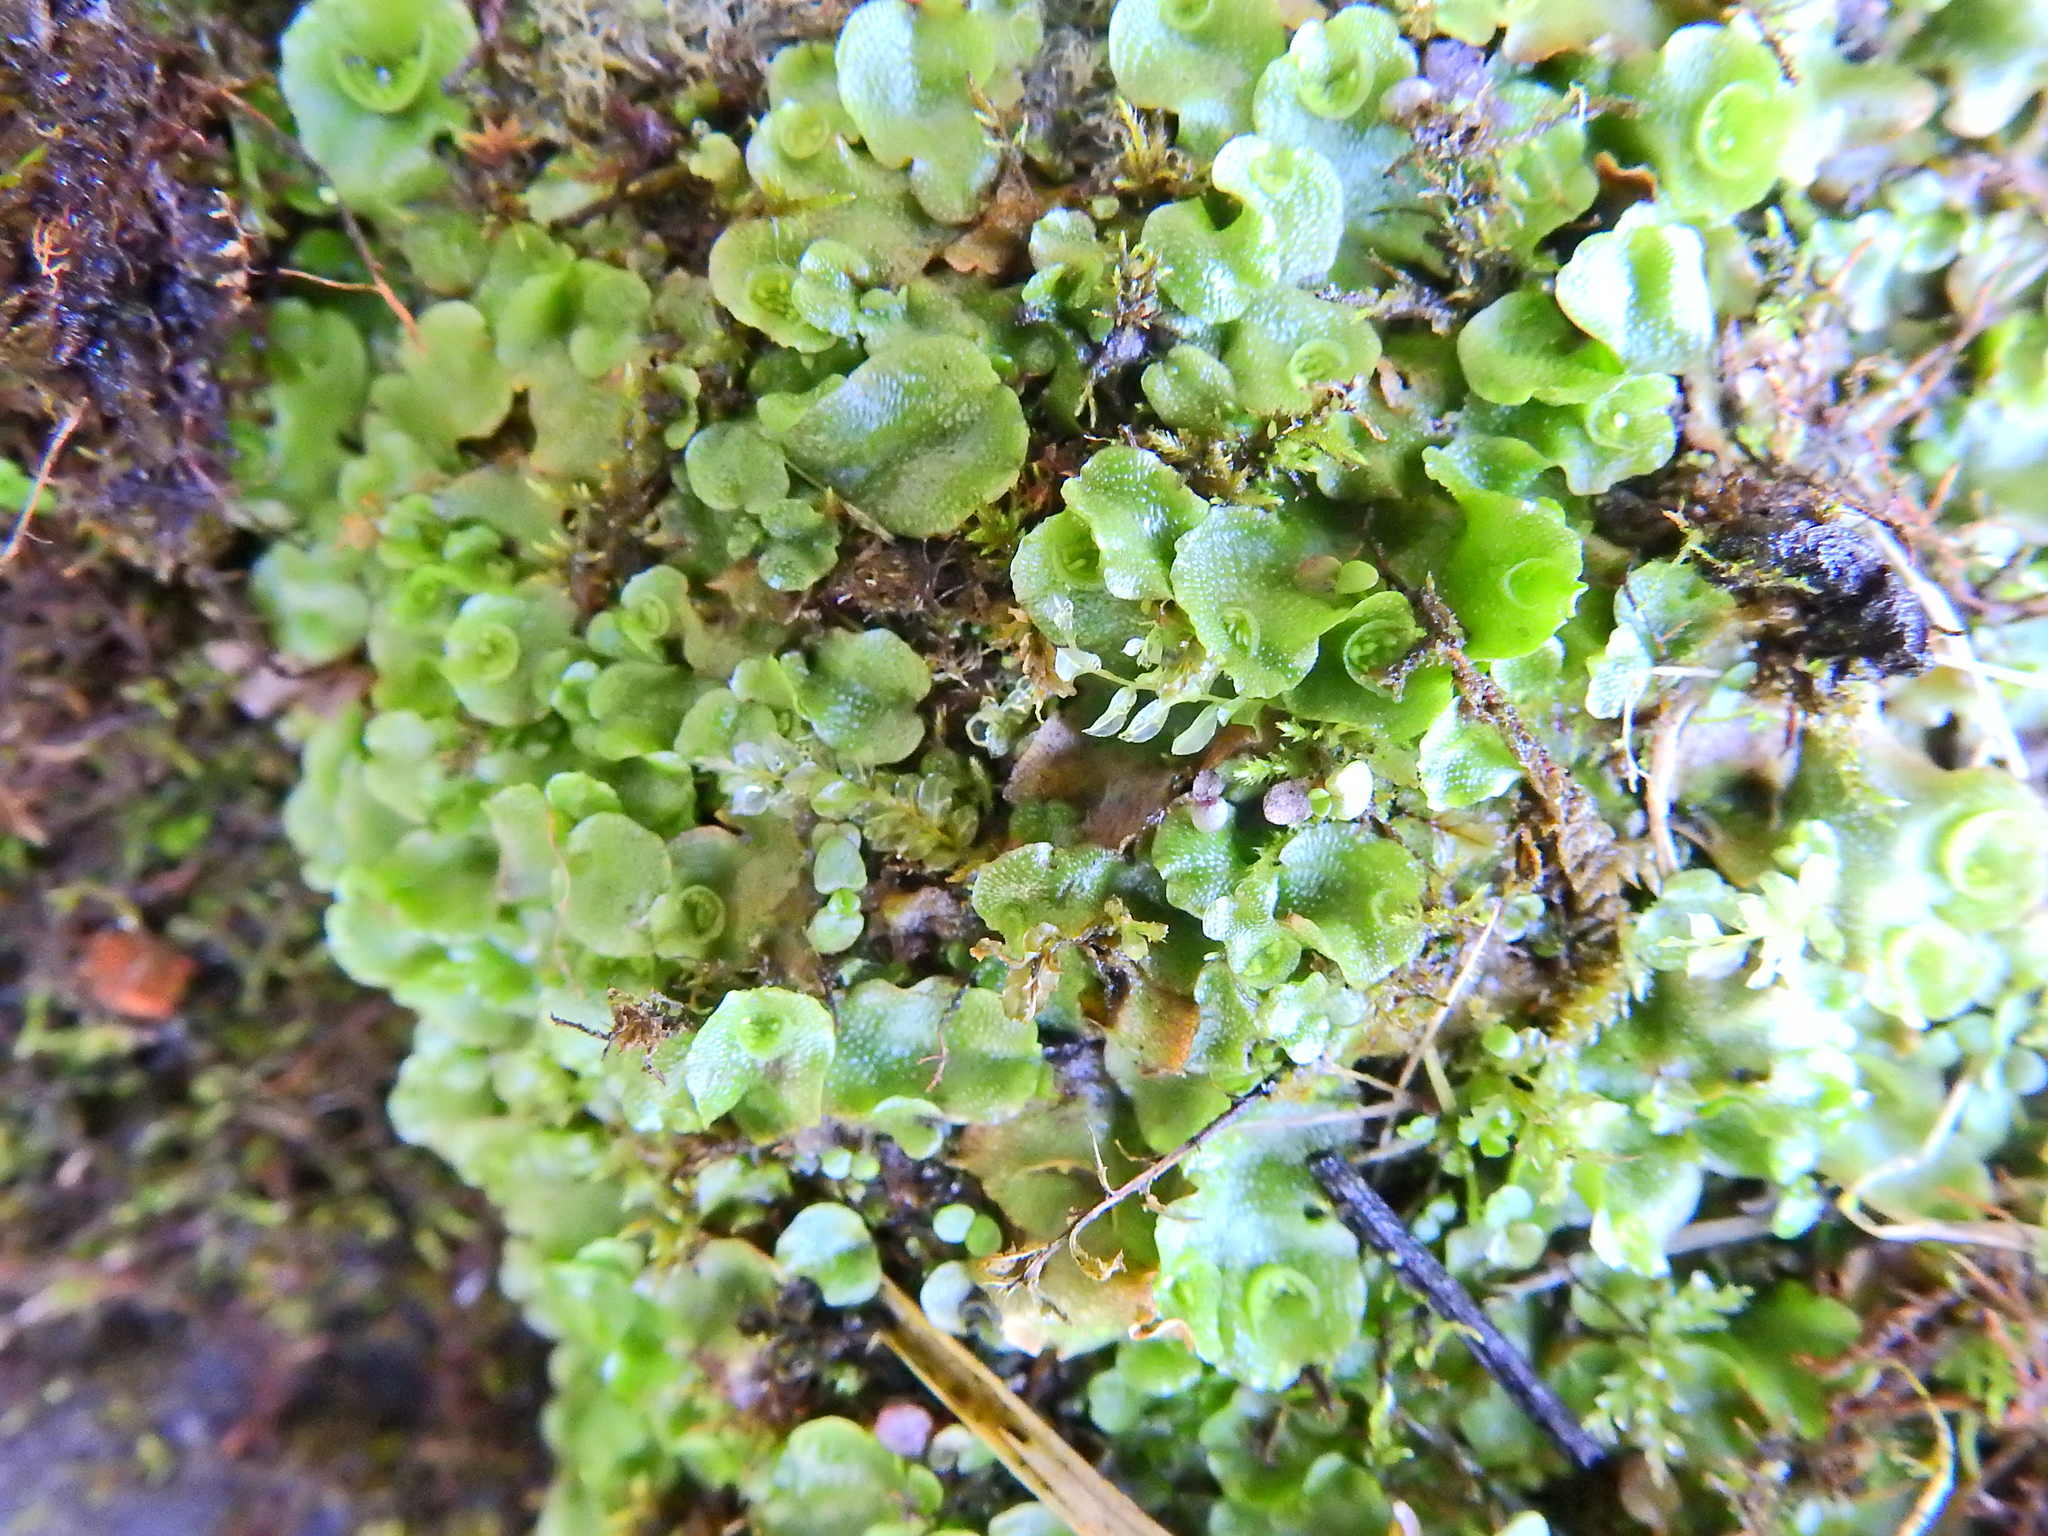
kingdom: Plantae
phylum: Marchantiophyta
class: Marchantiopsida
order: Lunulariales
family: Lunulariaceae
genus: Lunularia
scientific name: Lunularia cruciata
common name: Crescent-cup liverwort
